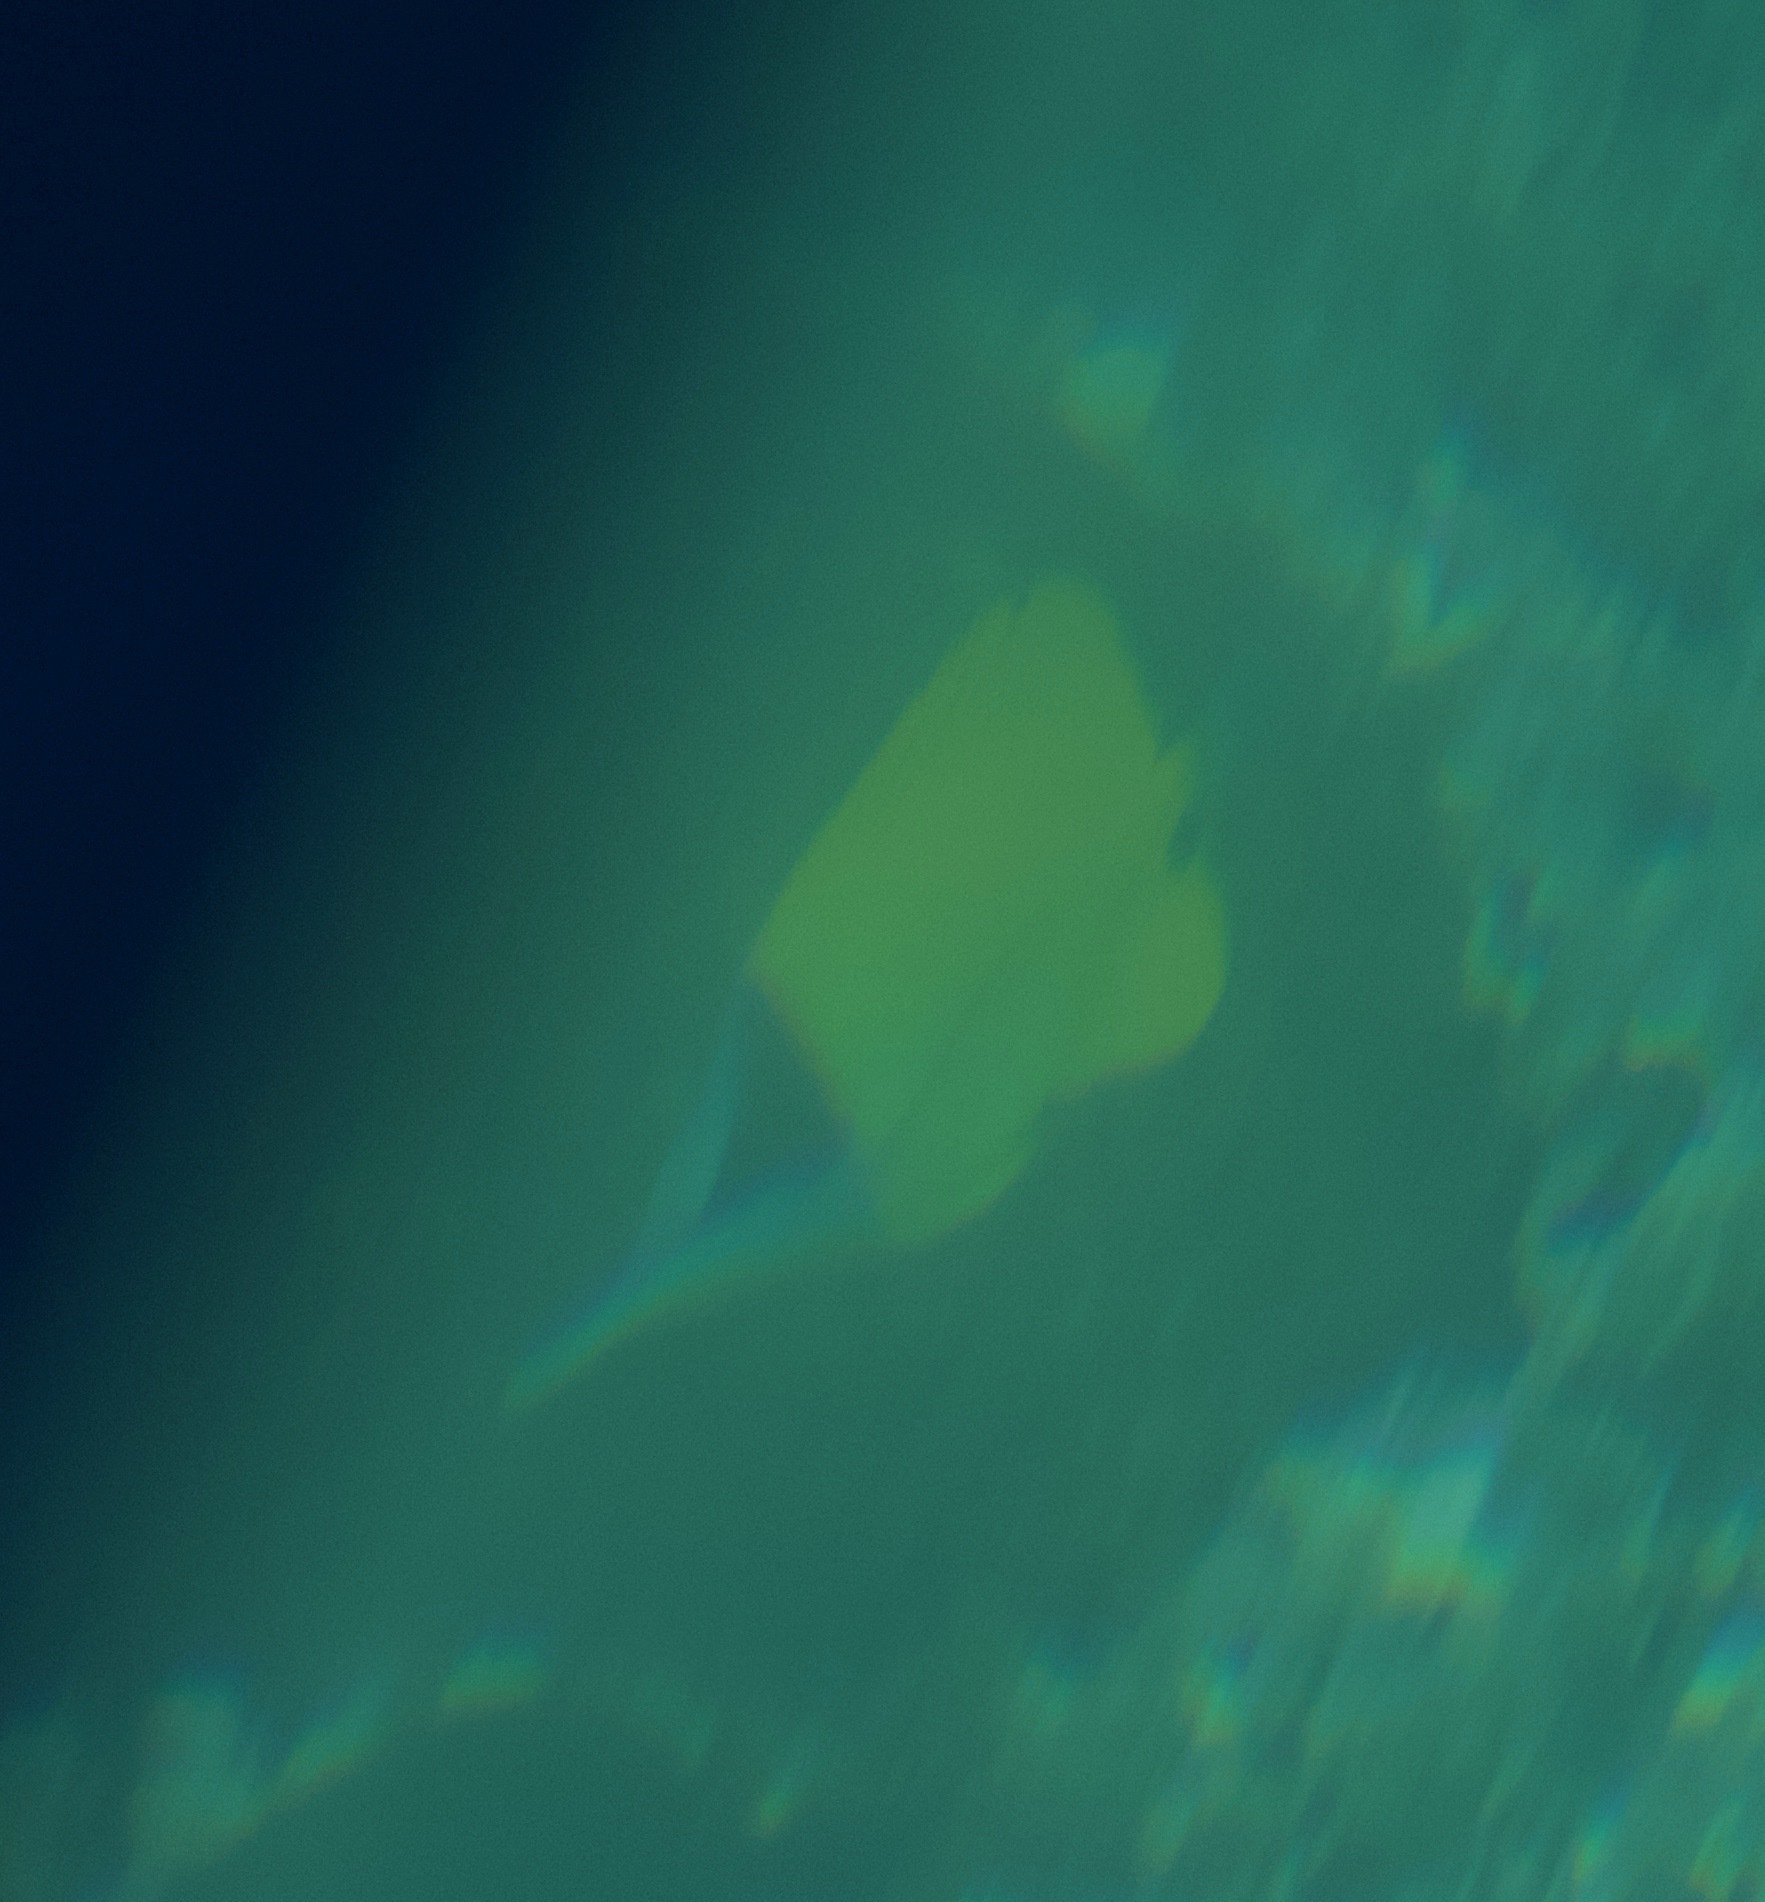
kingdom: Animalia
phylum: Chordata
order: Perciformes
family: Chaetodontidae
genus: Forcipiger
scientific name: Forcipiger flavissimus
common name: Forcepsfish
